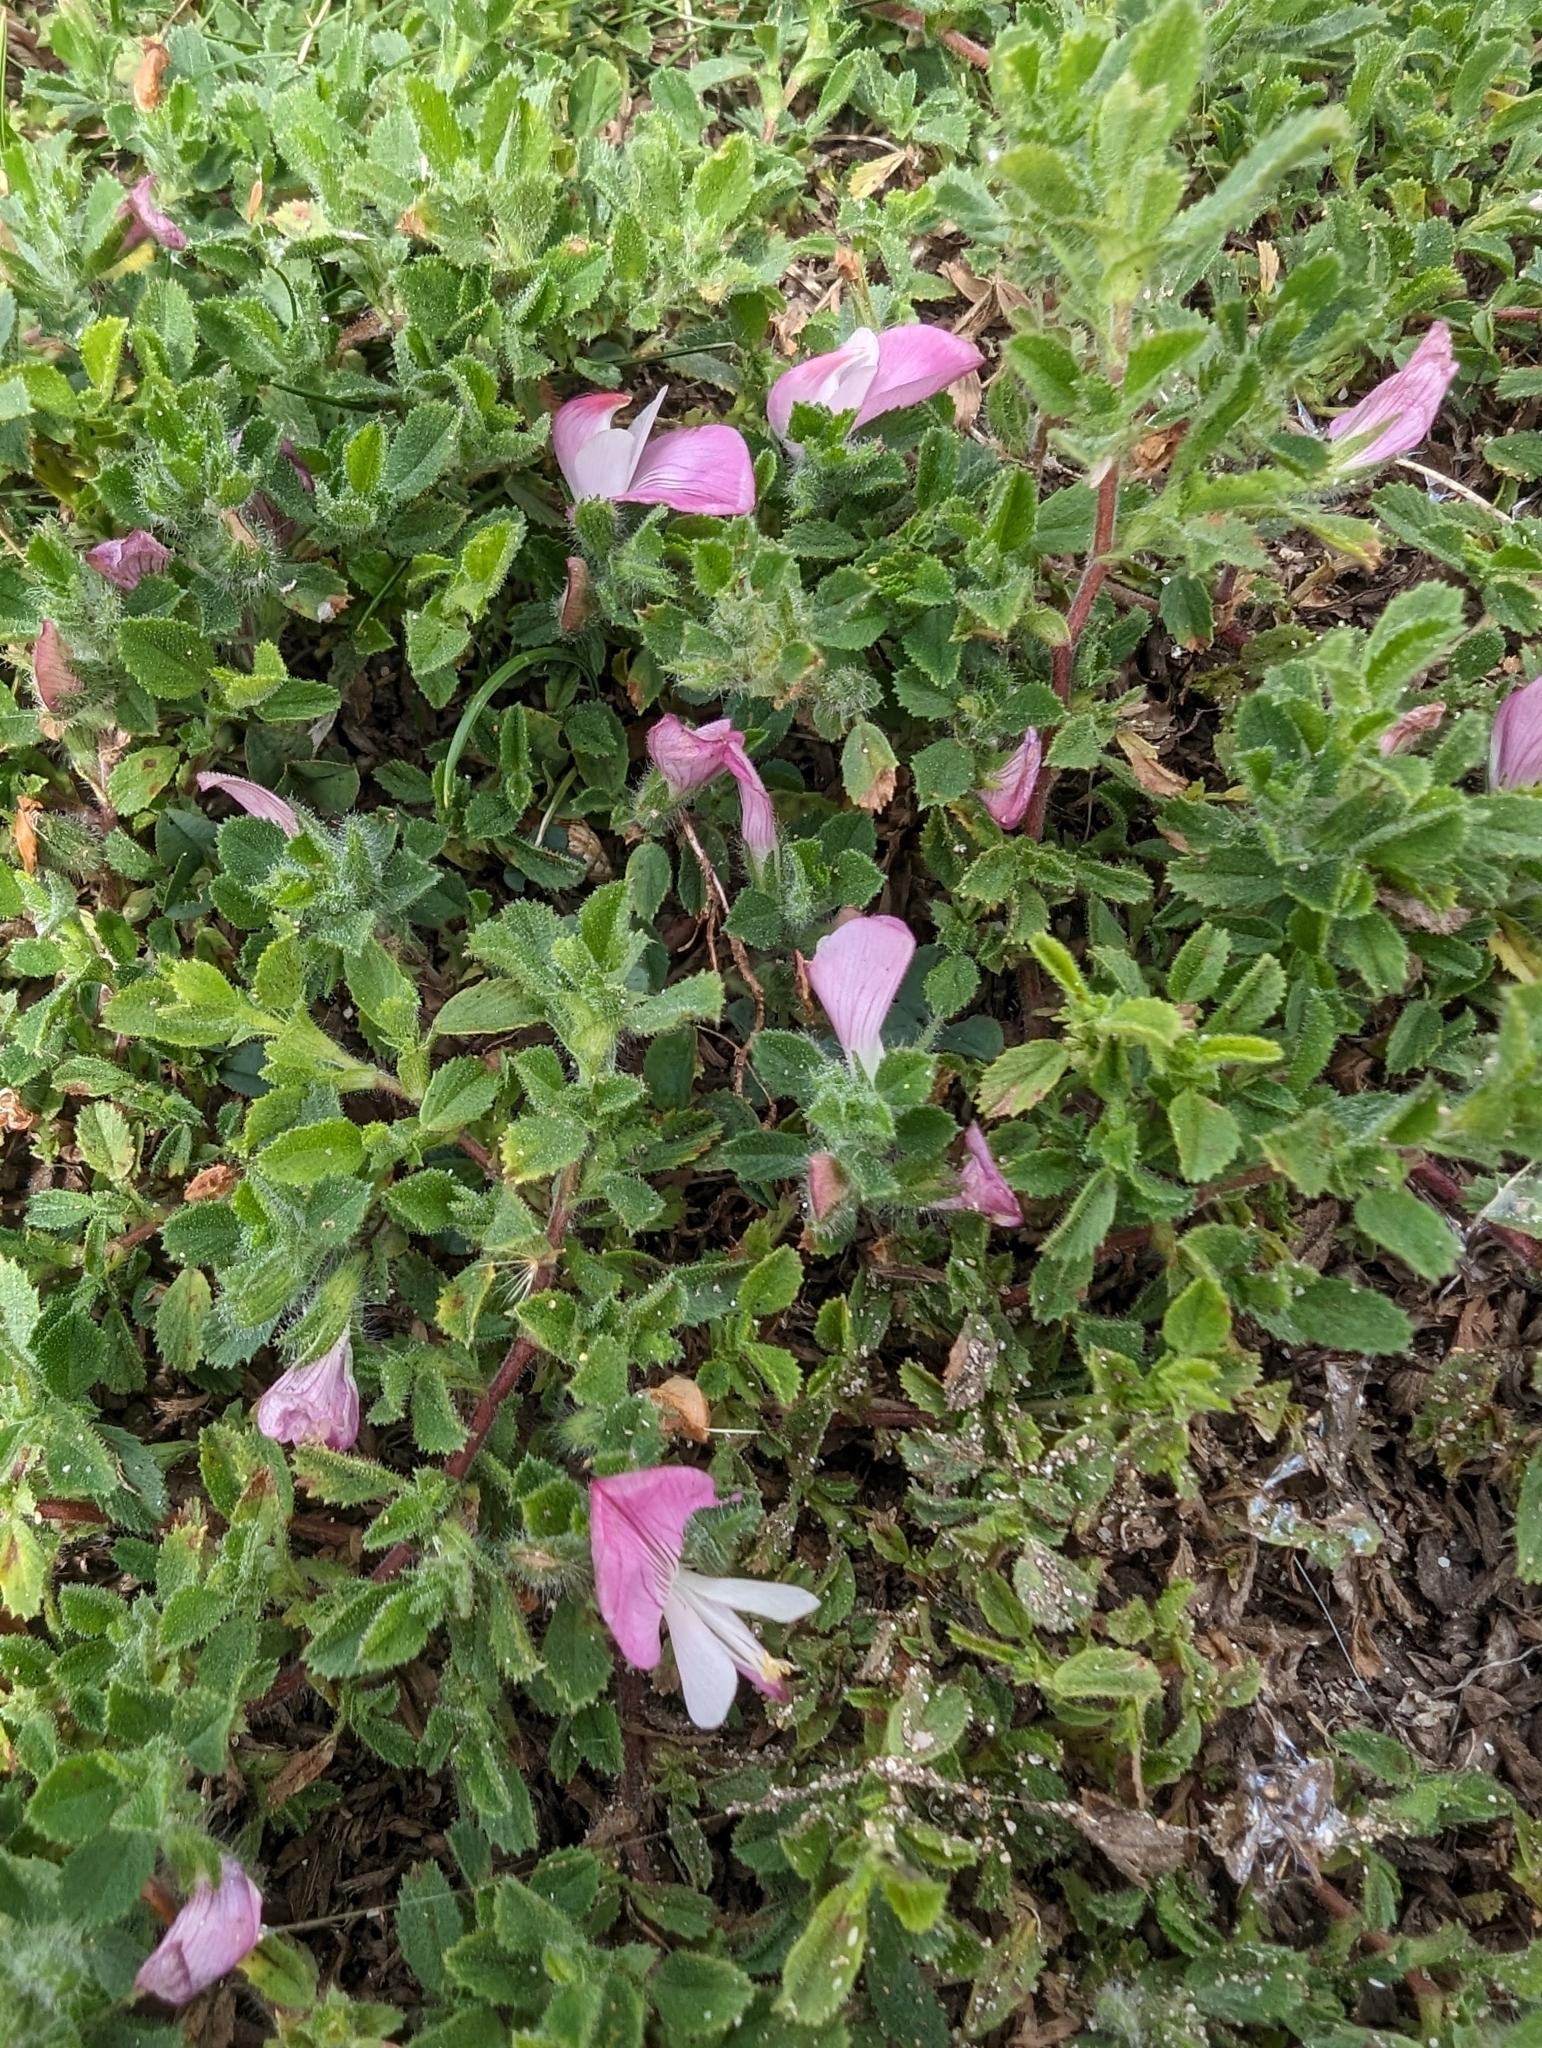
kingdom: Plantae
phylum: Tracheophyta
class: Magnoliopsida
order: Fabales
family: Fabaceae
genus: Ononis
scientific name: Ononis spinosa
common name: Spiny restharrow
